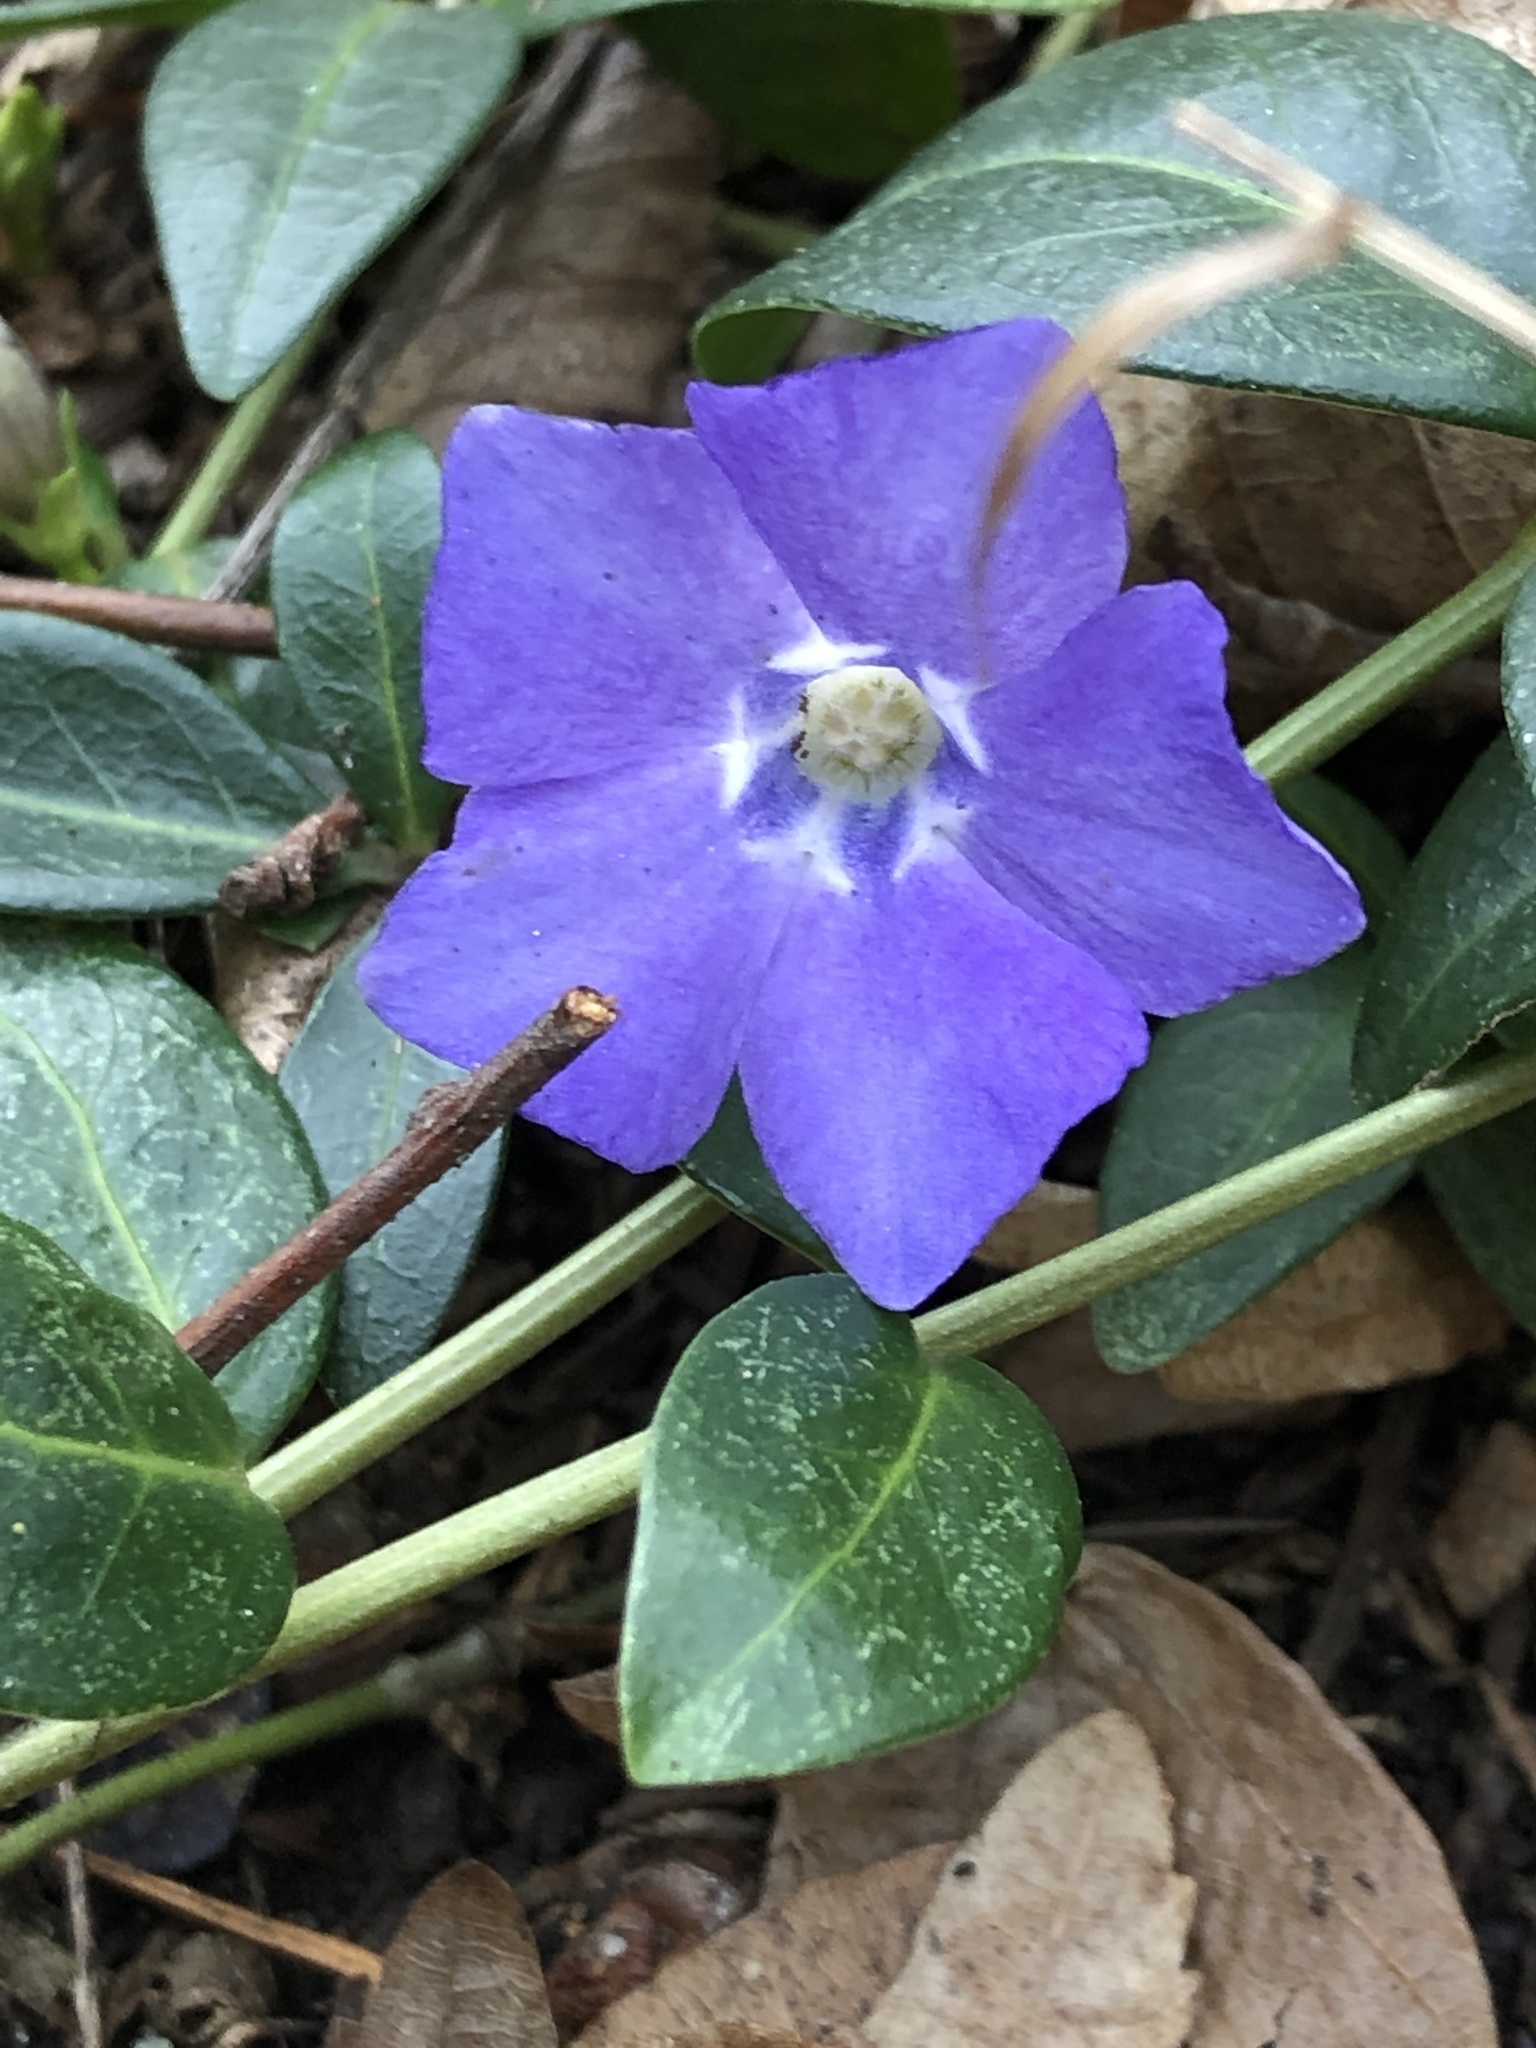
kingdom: Plantae
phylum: Tracheophyta
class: Magnoliopsida
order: Gentianales
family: Apocynaceae
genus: Vinca
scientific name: Vinca minor
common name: Lesser periwinkle
